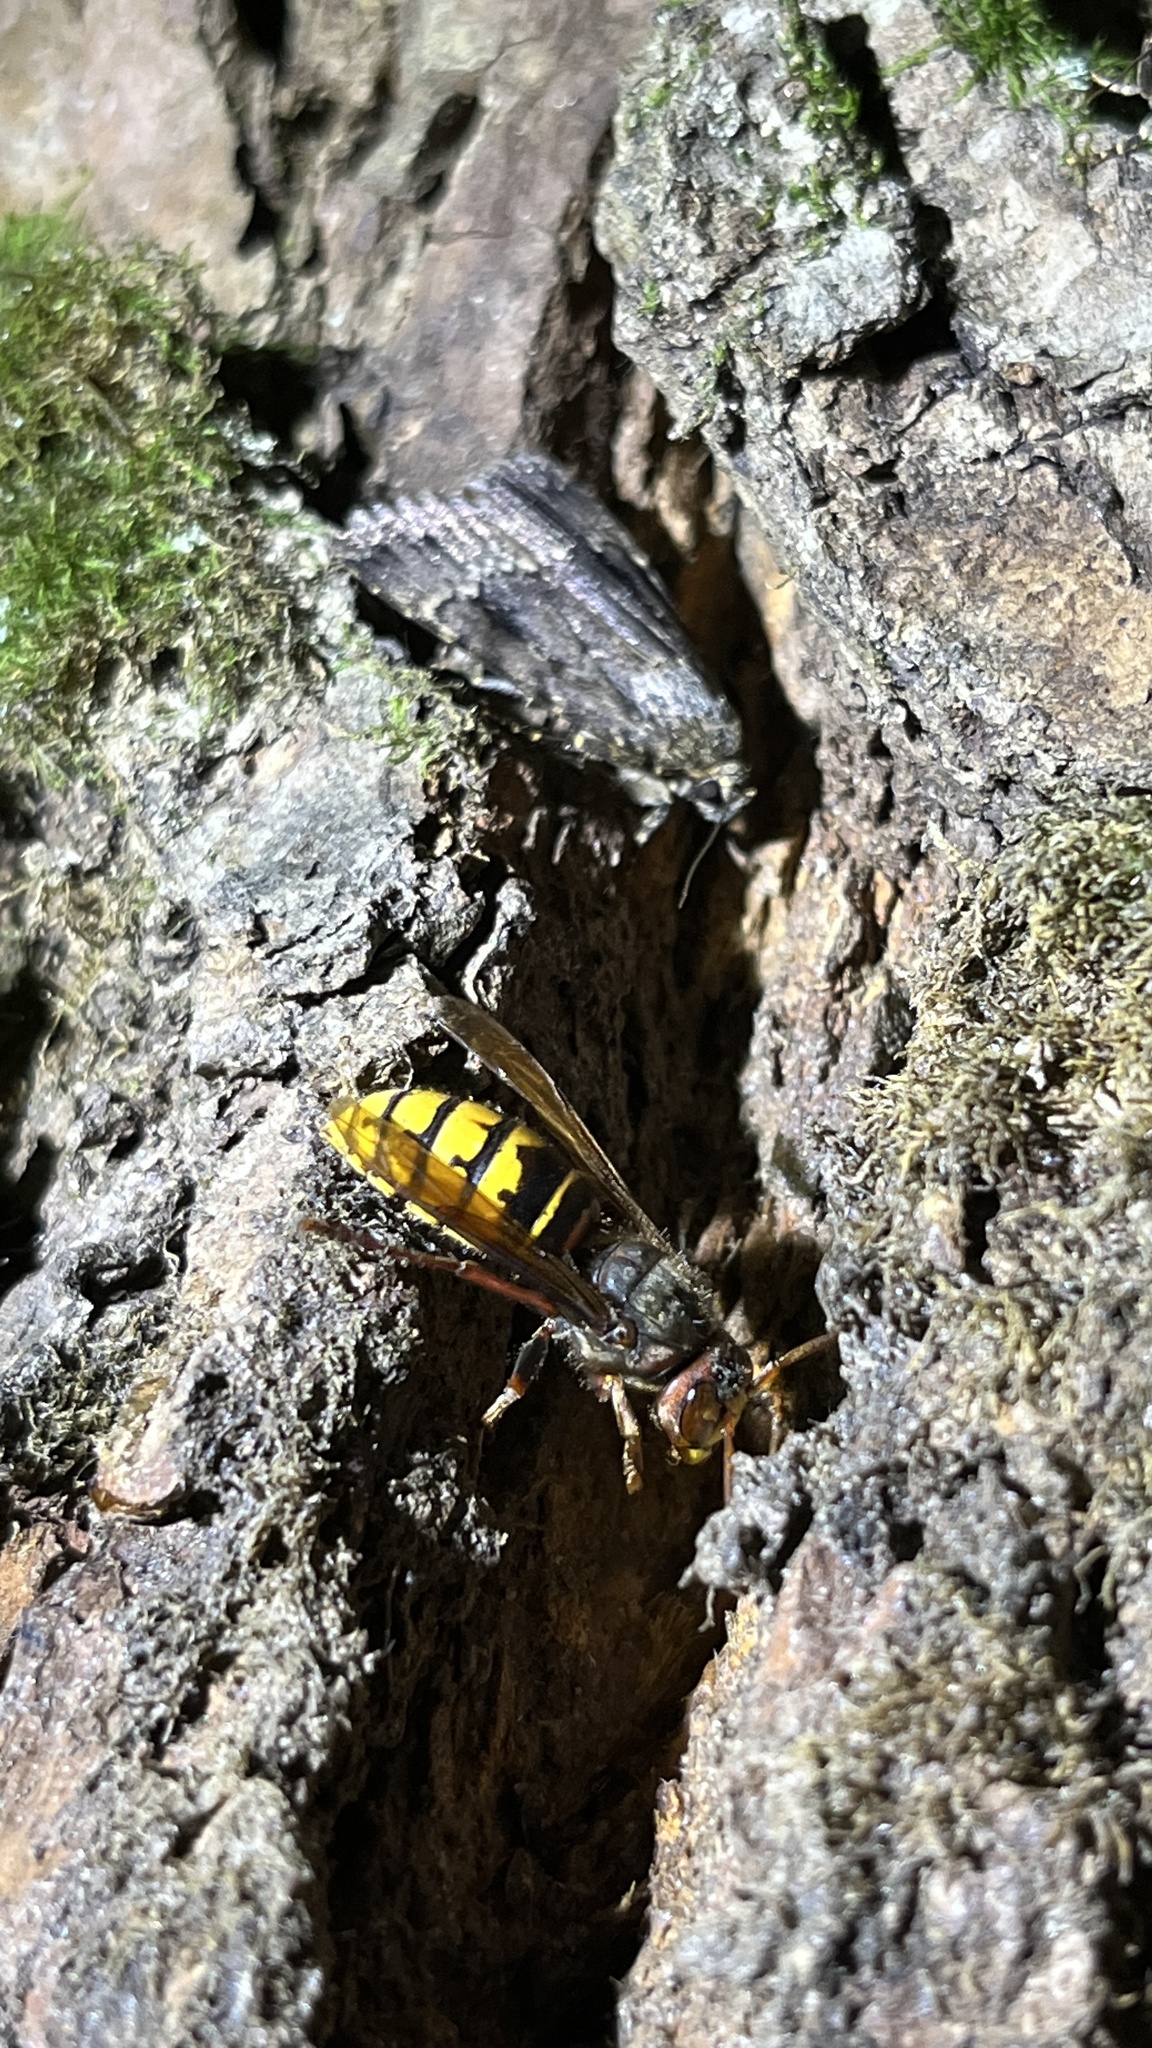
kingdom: Animalia
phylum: Arthropoda
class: Insecta
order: Hymenoptera
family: Vespidae
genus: Vespa
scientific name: Vespa crabro
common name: Hornet
